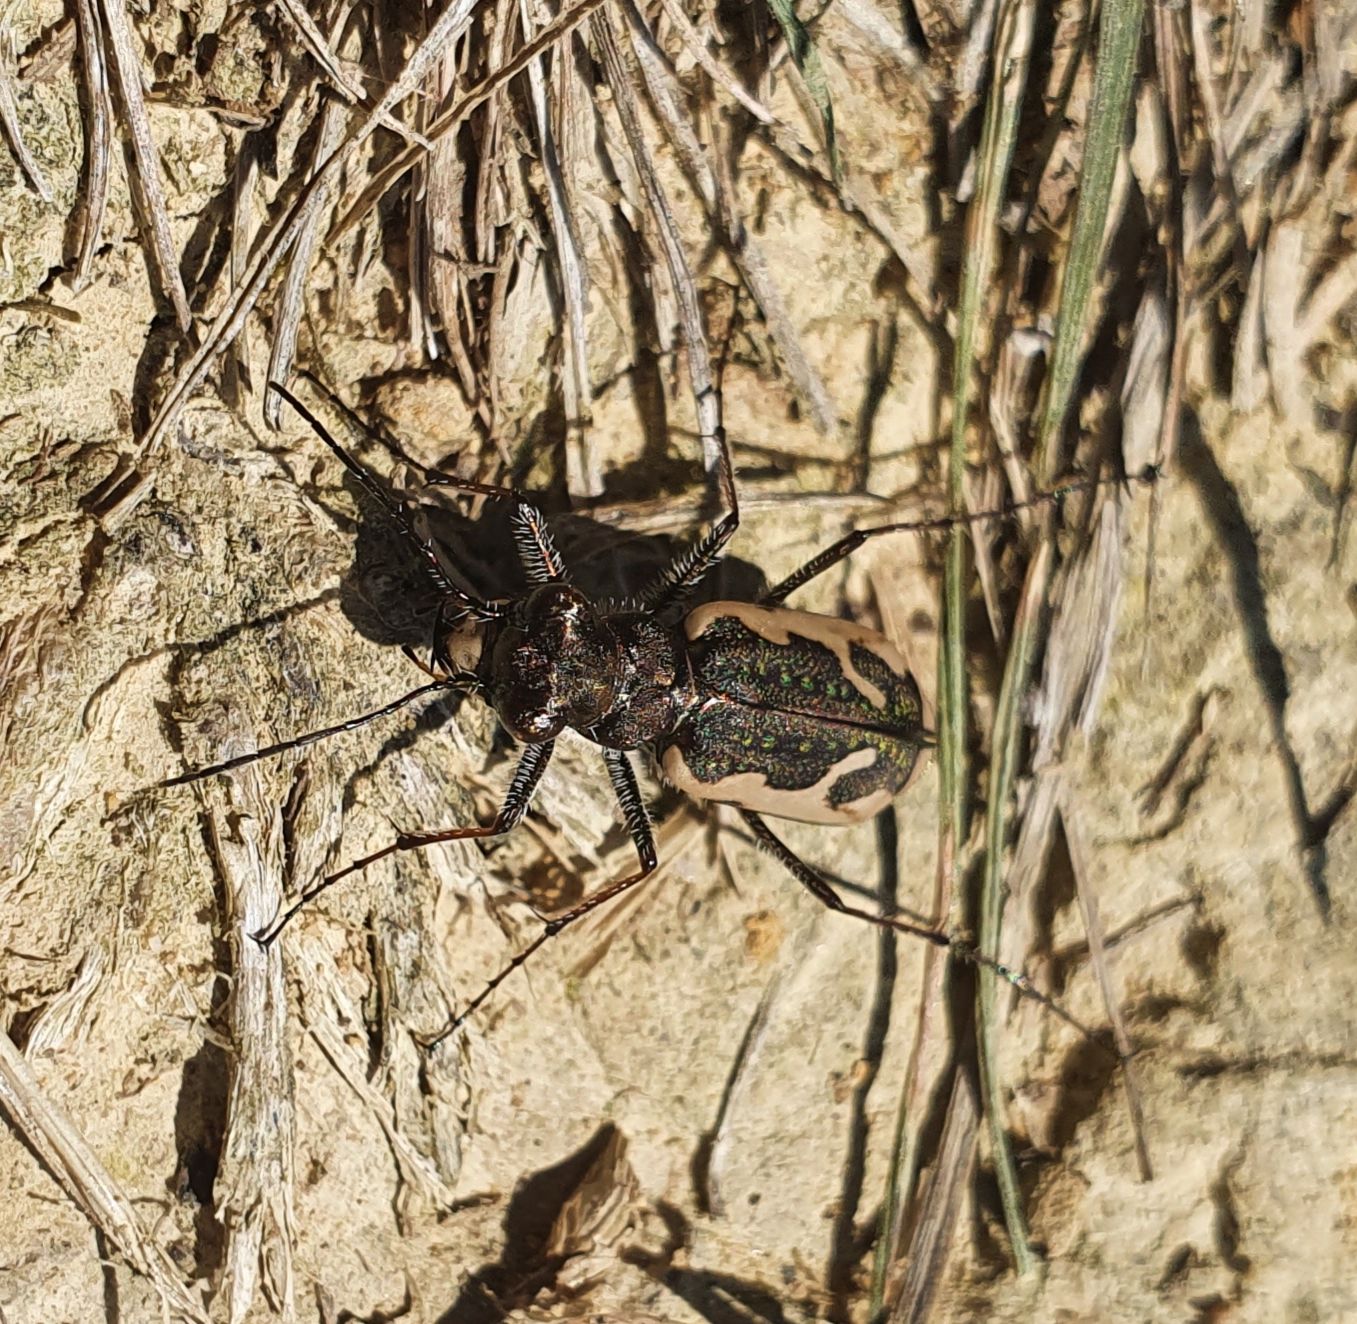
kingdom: Animalia
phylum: Arthropoda
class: Insecta
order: Coleoptera
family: Carabidae
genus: Neocicindela
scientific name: Neocicindela tuberculata
